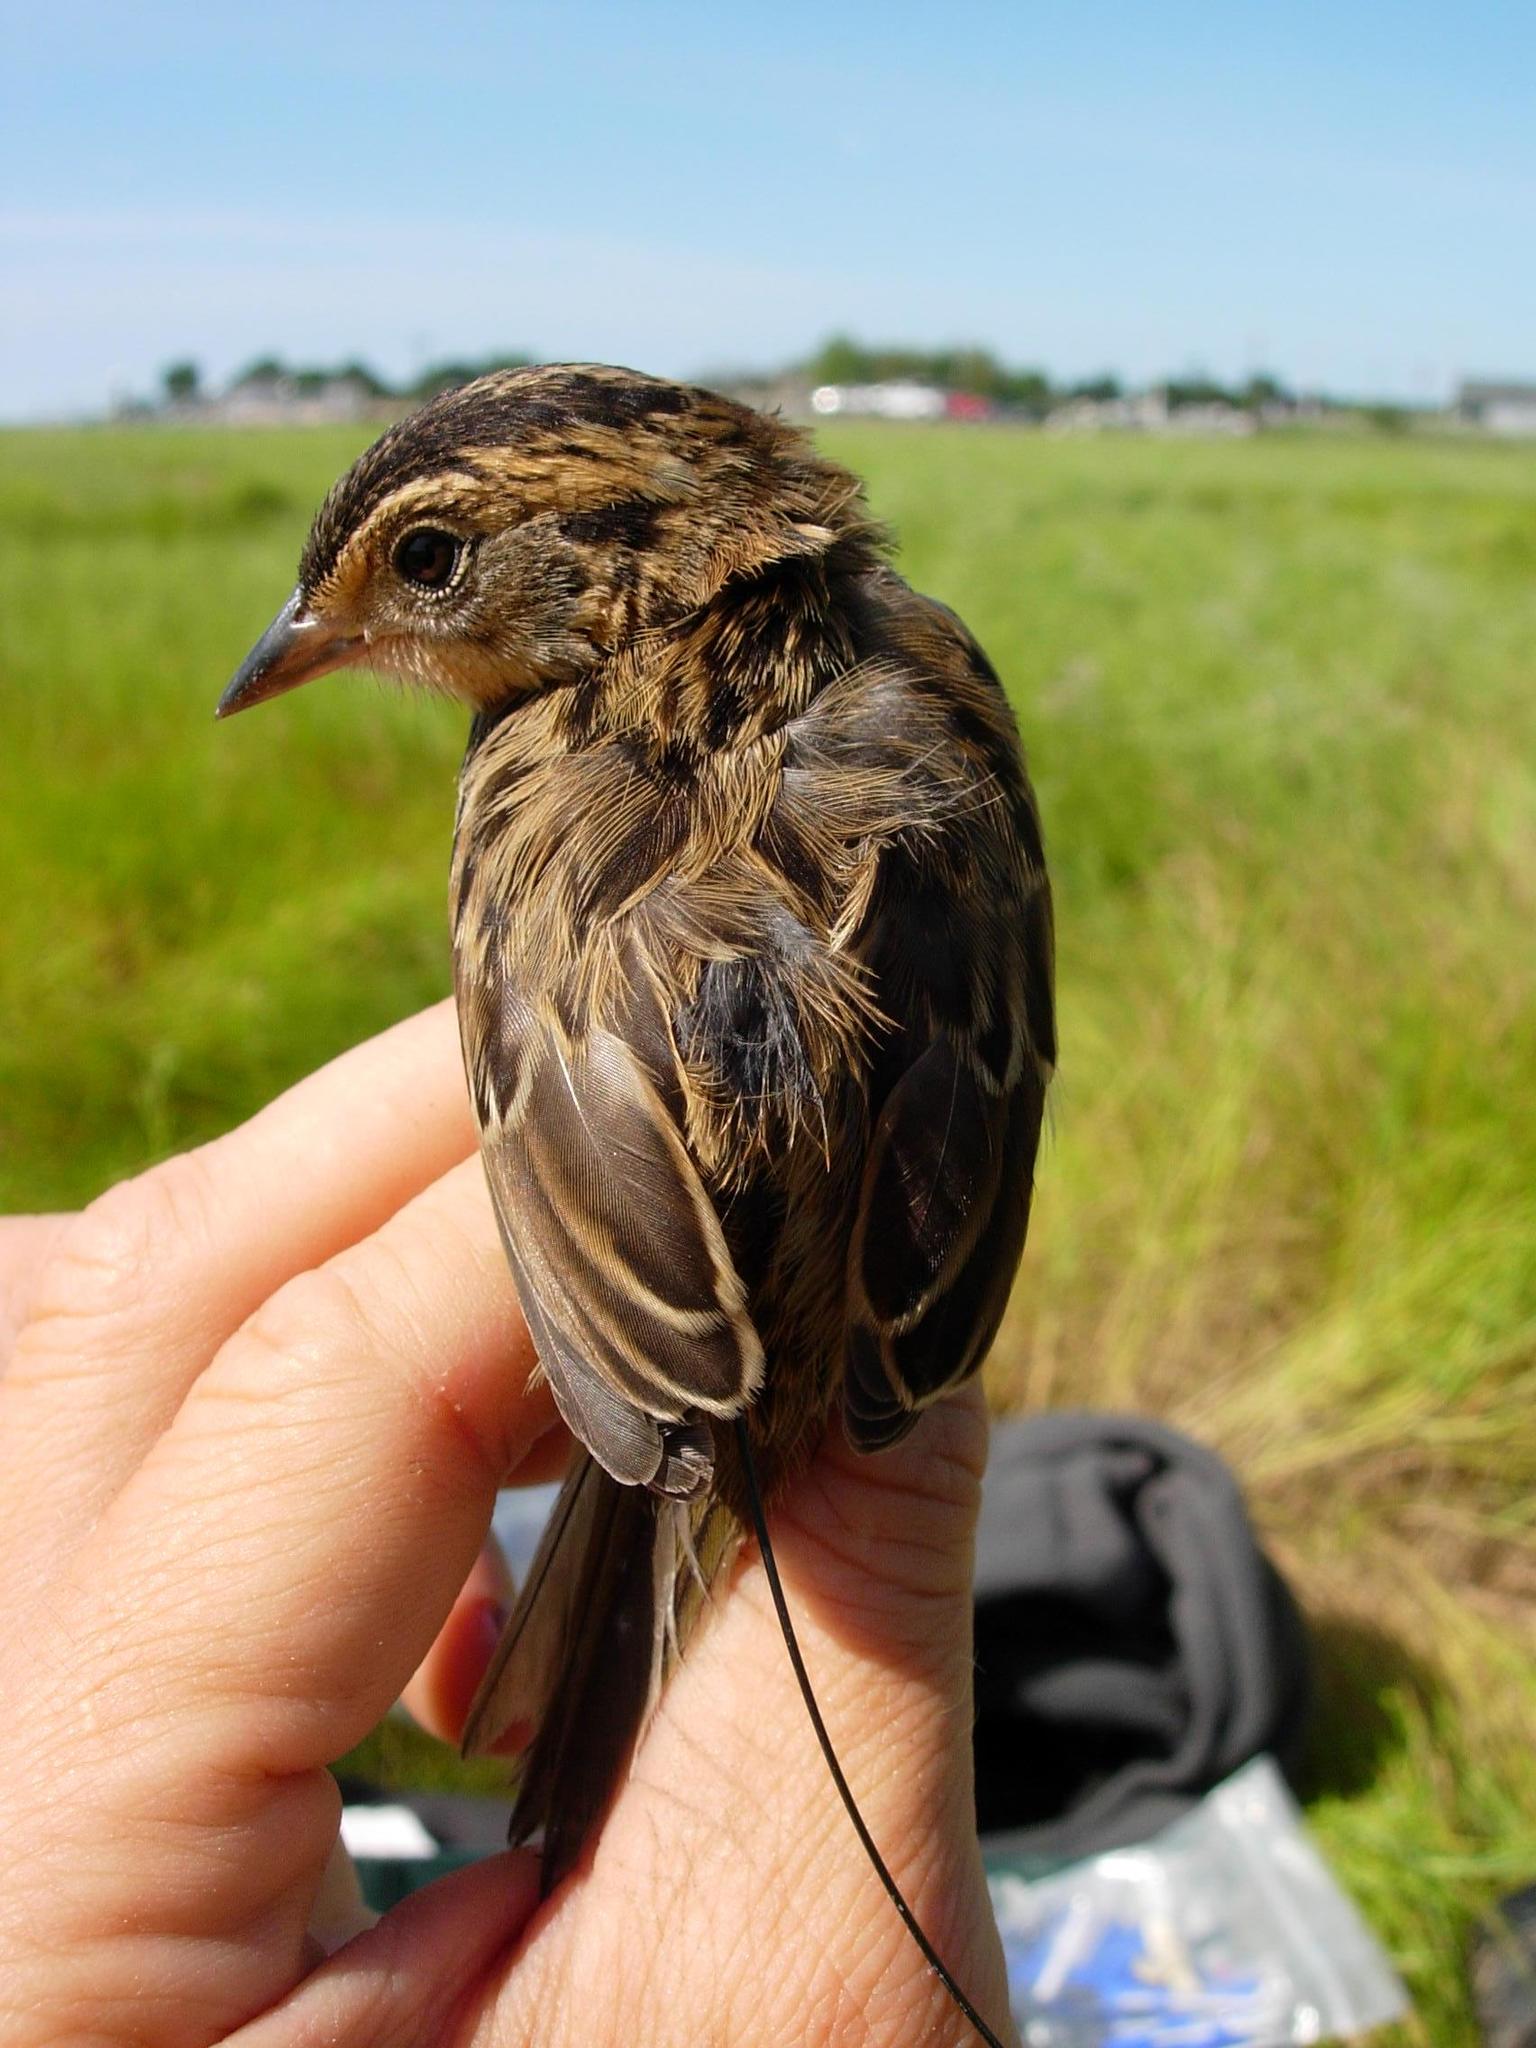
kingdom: Animalia
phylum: Chordata
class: Aves
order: Passeriformes
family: Passerellidae
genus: Ammospiza
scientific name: Ammospiza caudacuta
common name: Saltmarsh sparrow
